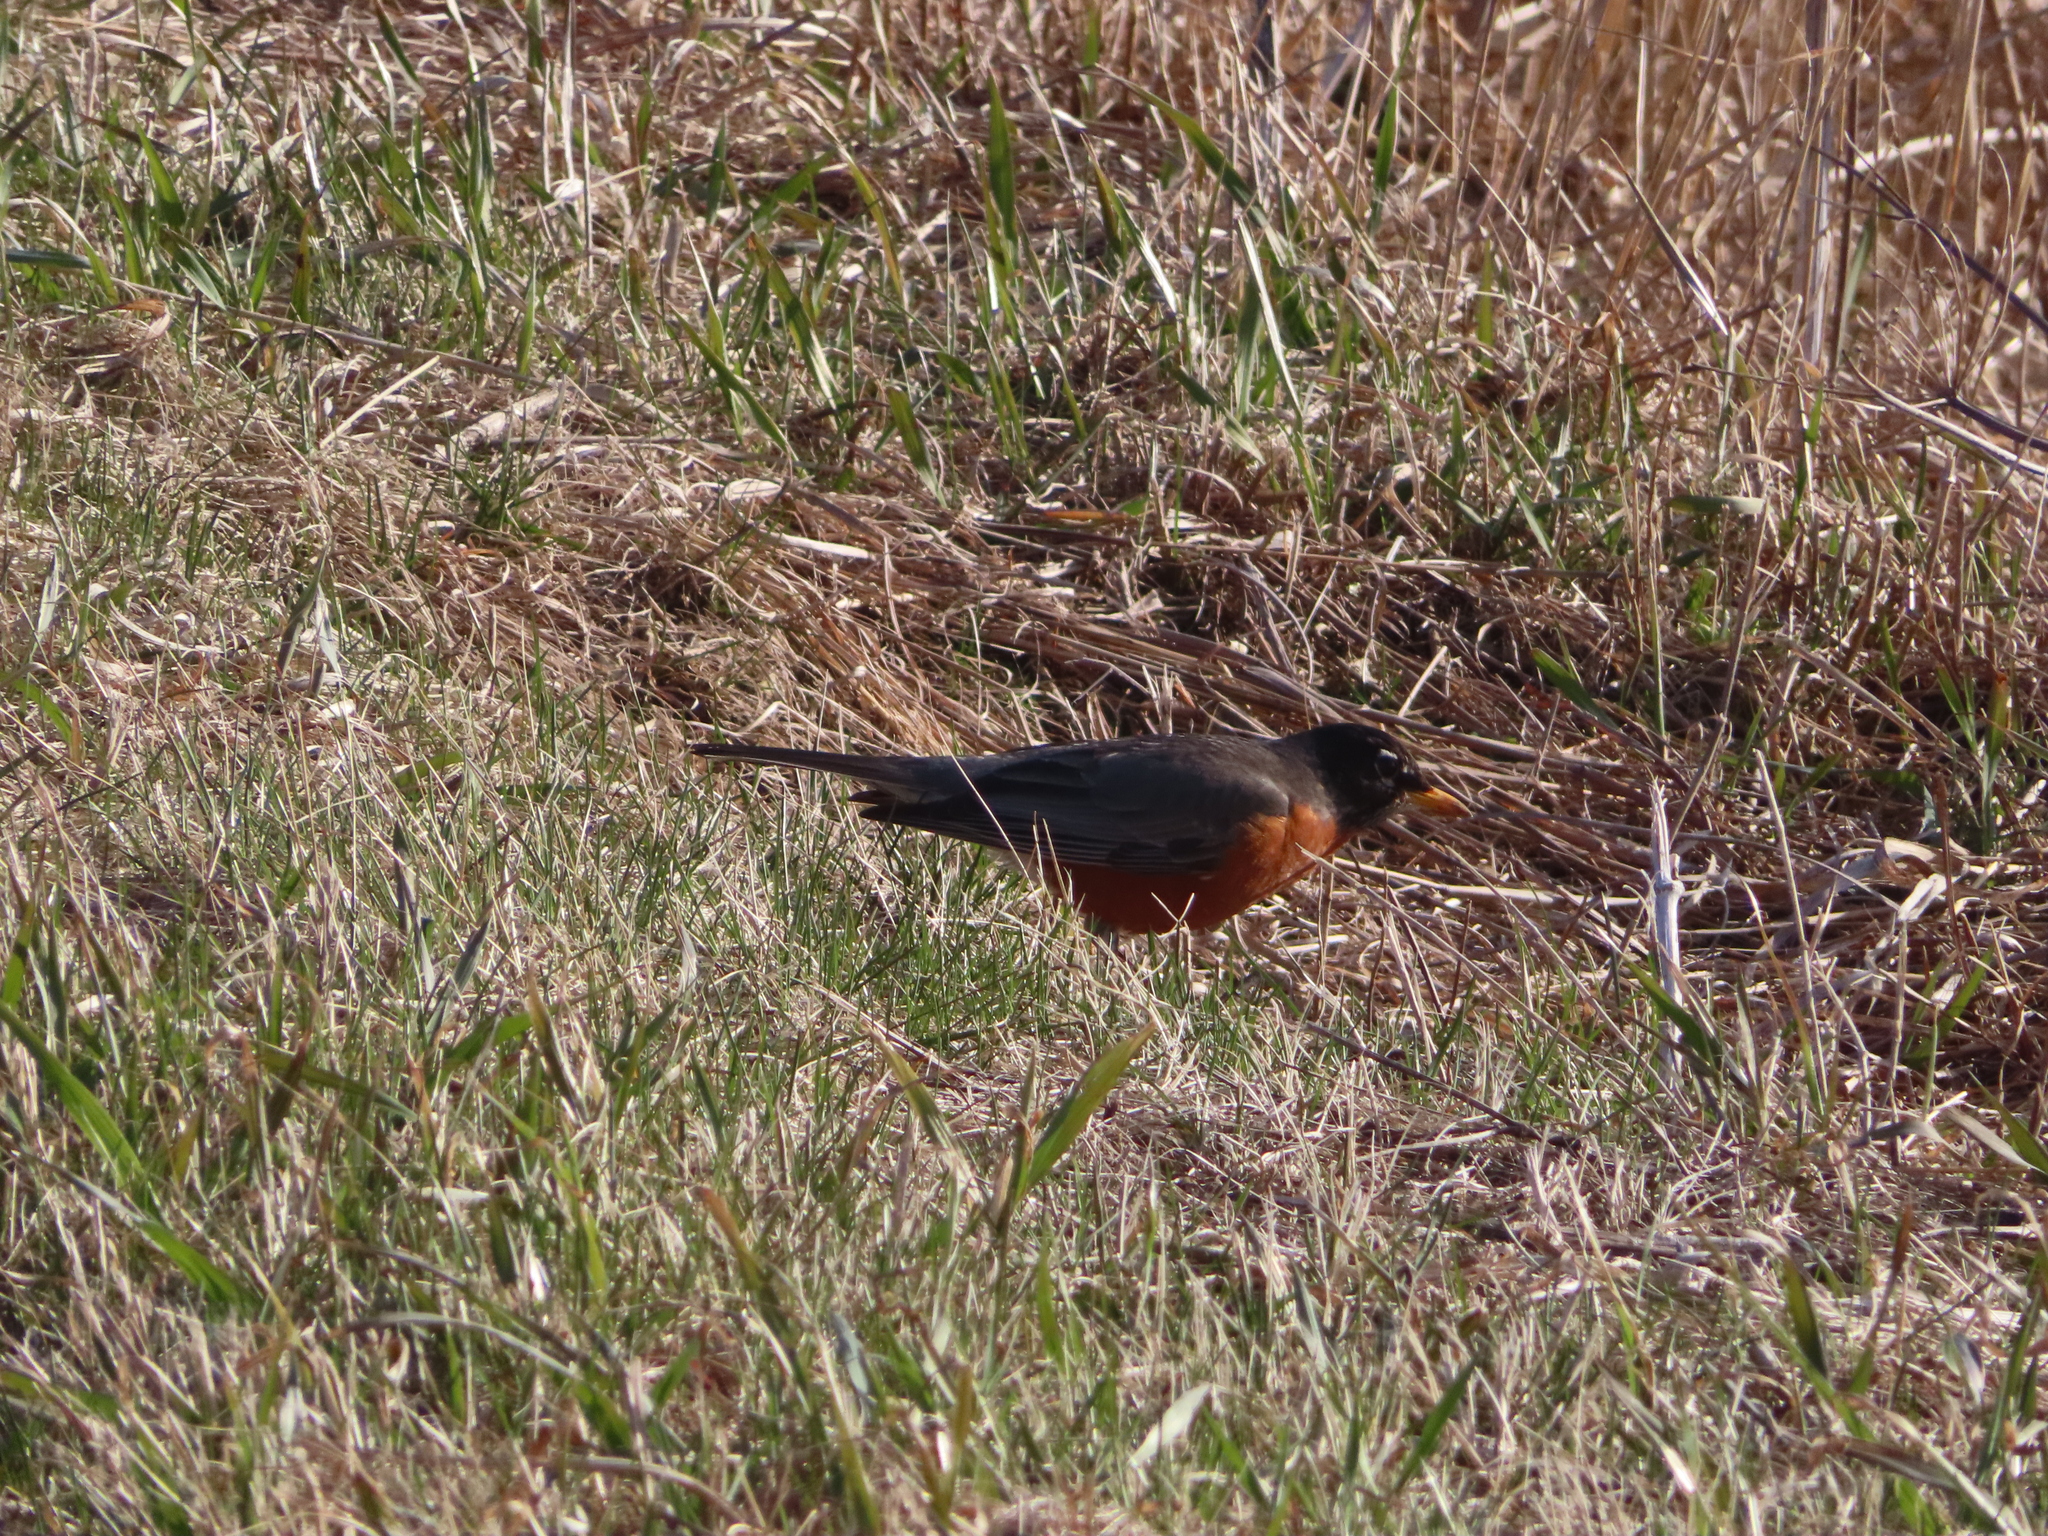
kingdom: Animalia
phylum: Chordata
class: Aves
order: Passeriformes
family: Turdidae
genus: Turdus
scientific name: Turdus migratorius
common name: American robin
